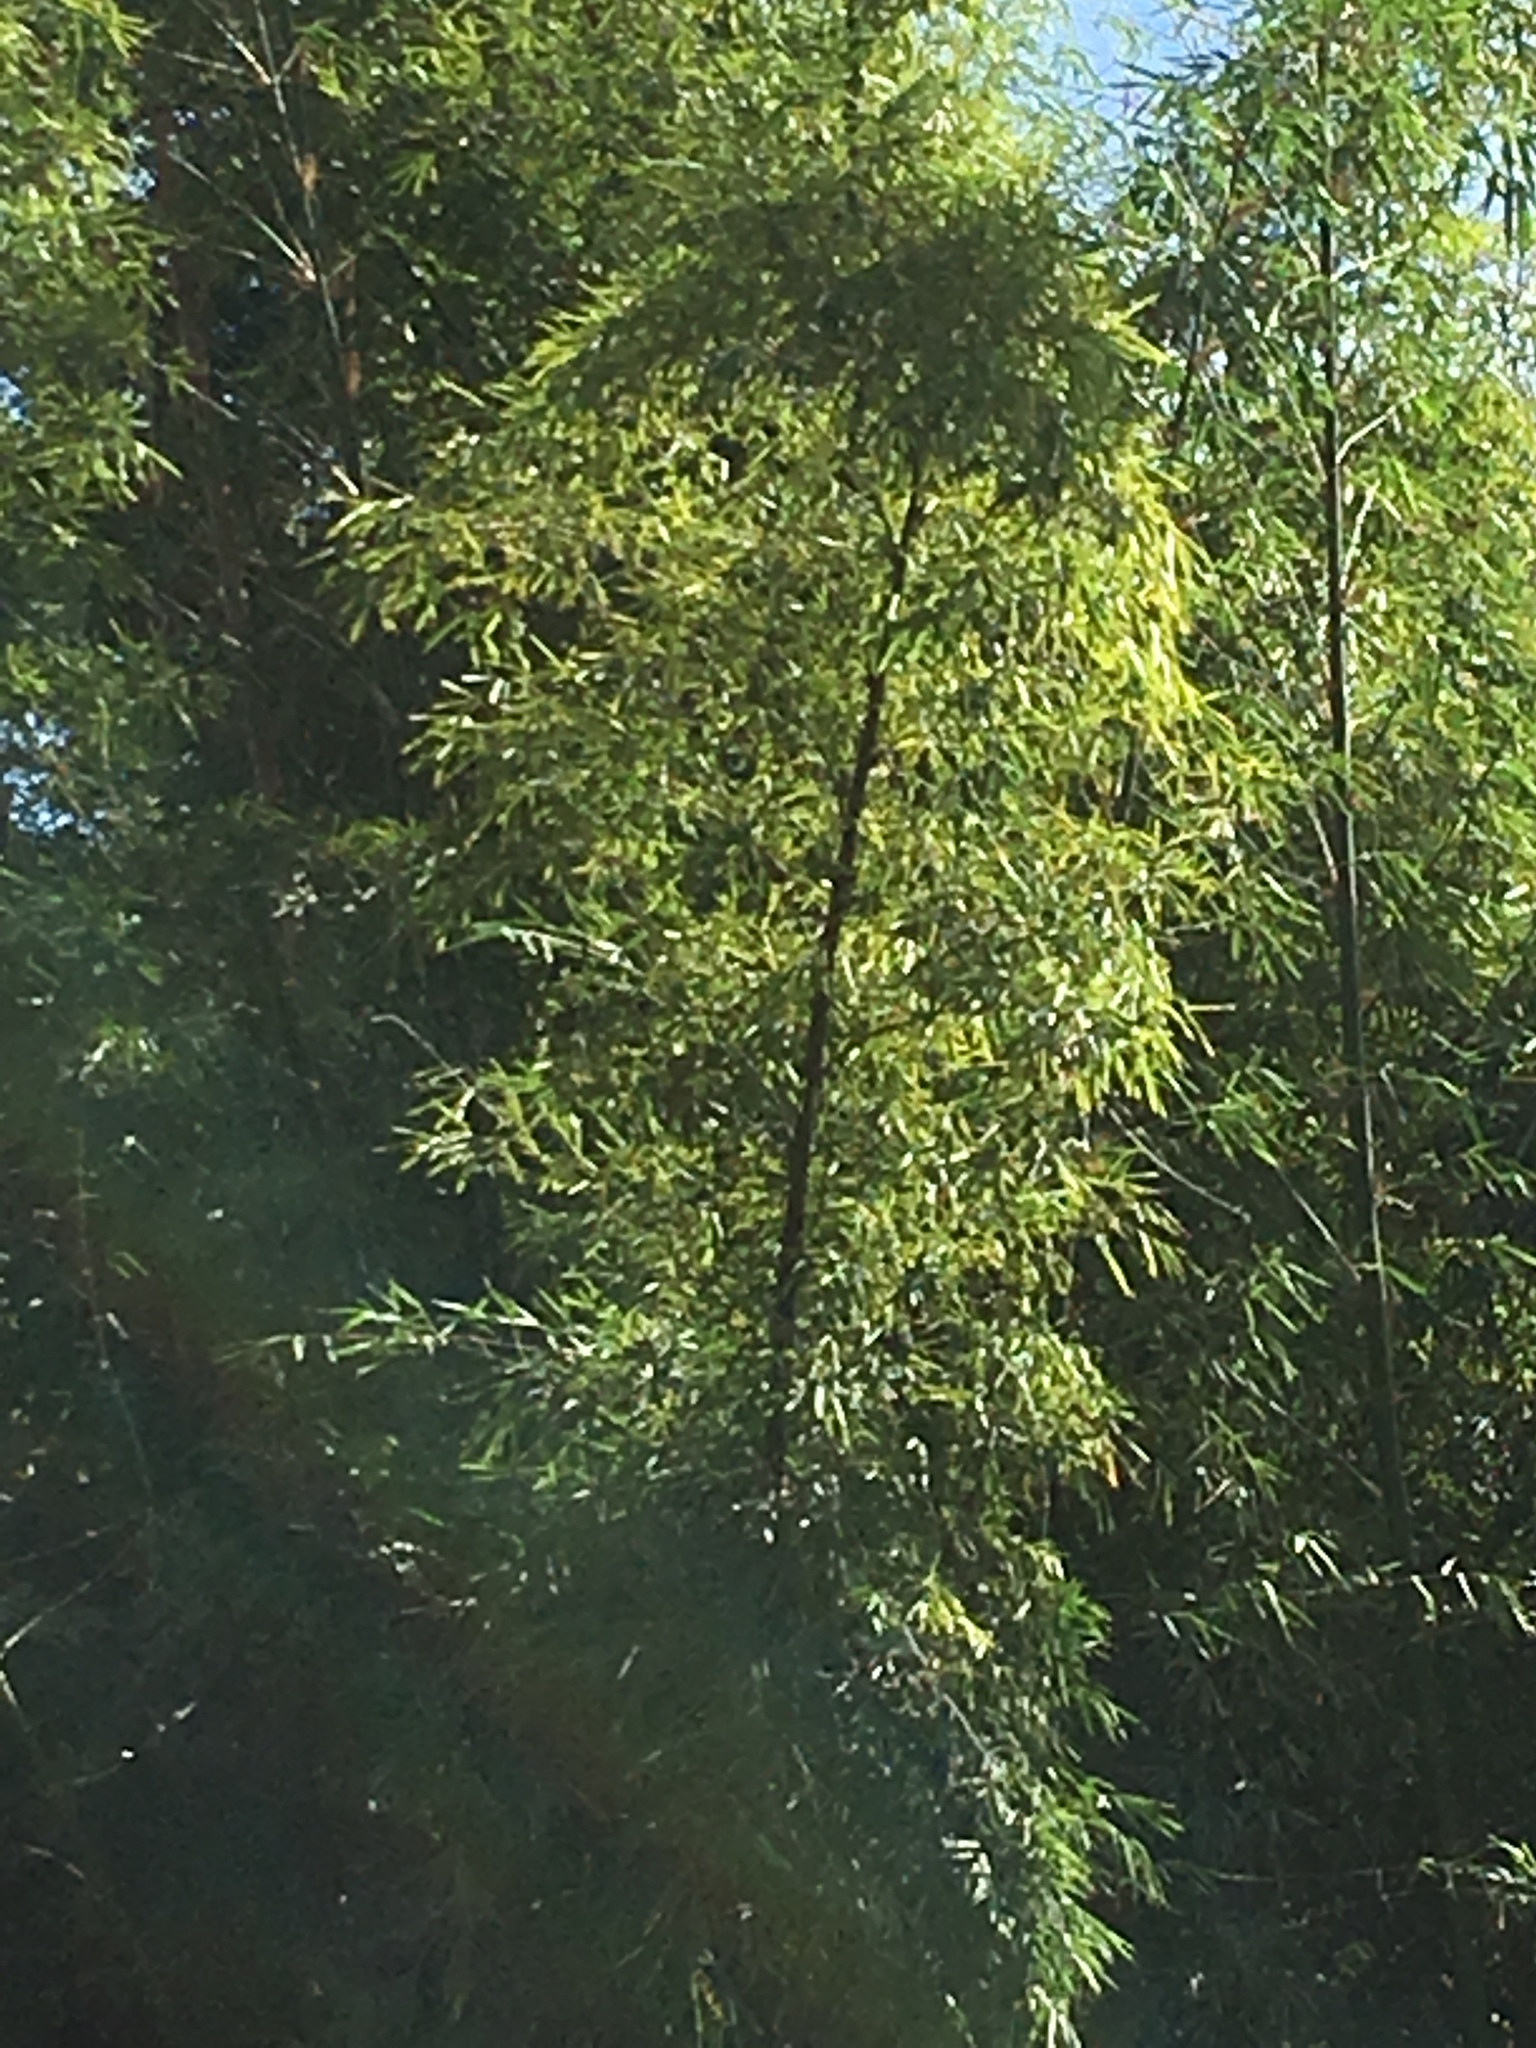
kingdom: Plantae
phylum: Tracheophyta
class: Liliopsida
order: Poales
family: Poaceae
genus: Bambusa
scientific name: Bambusa vulgaris
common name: Common bamboo
